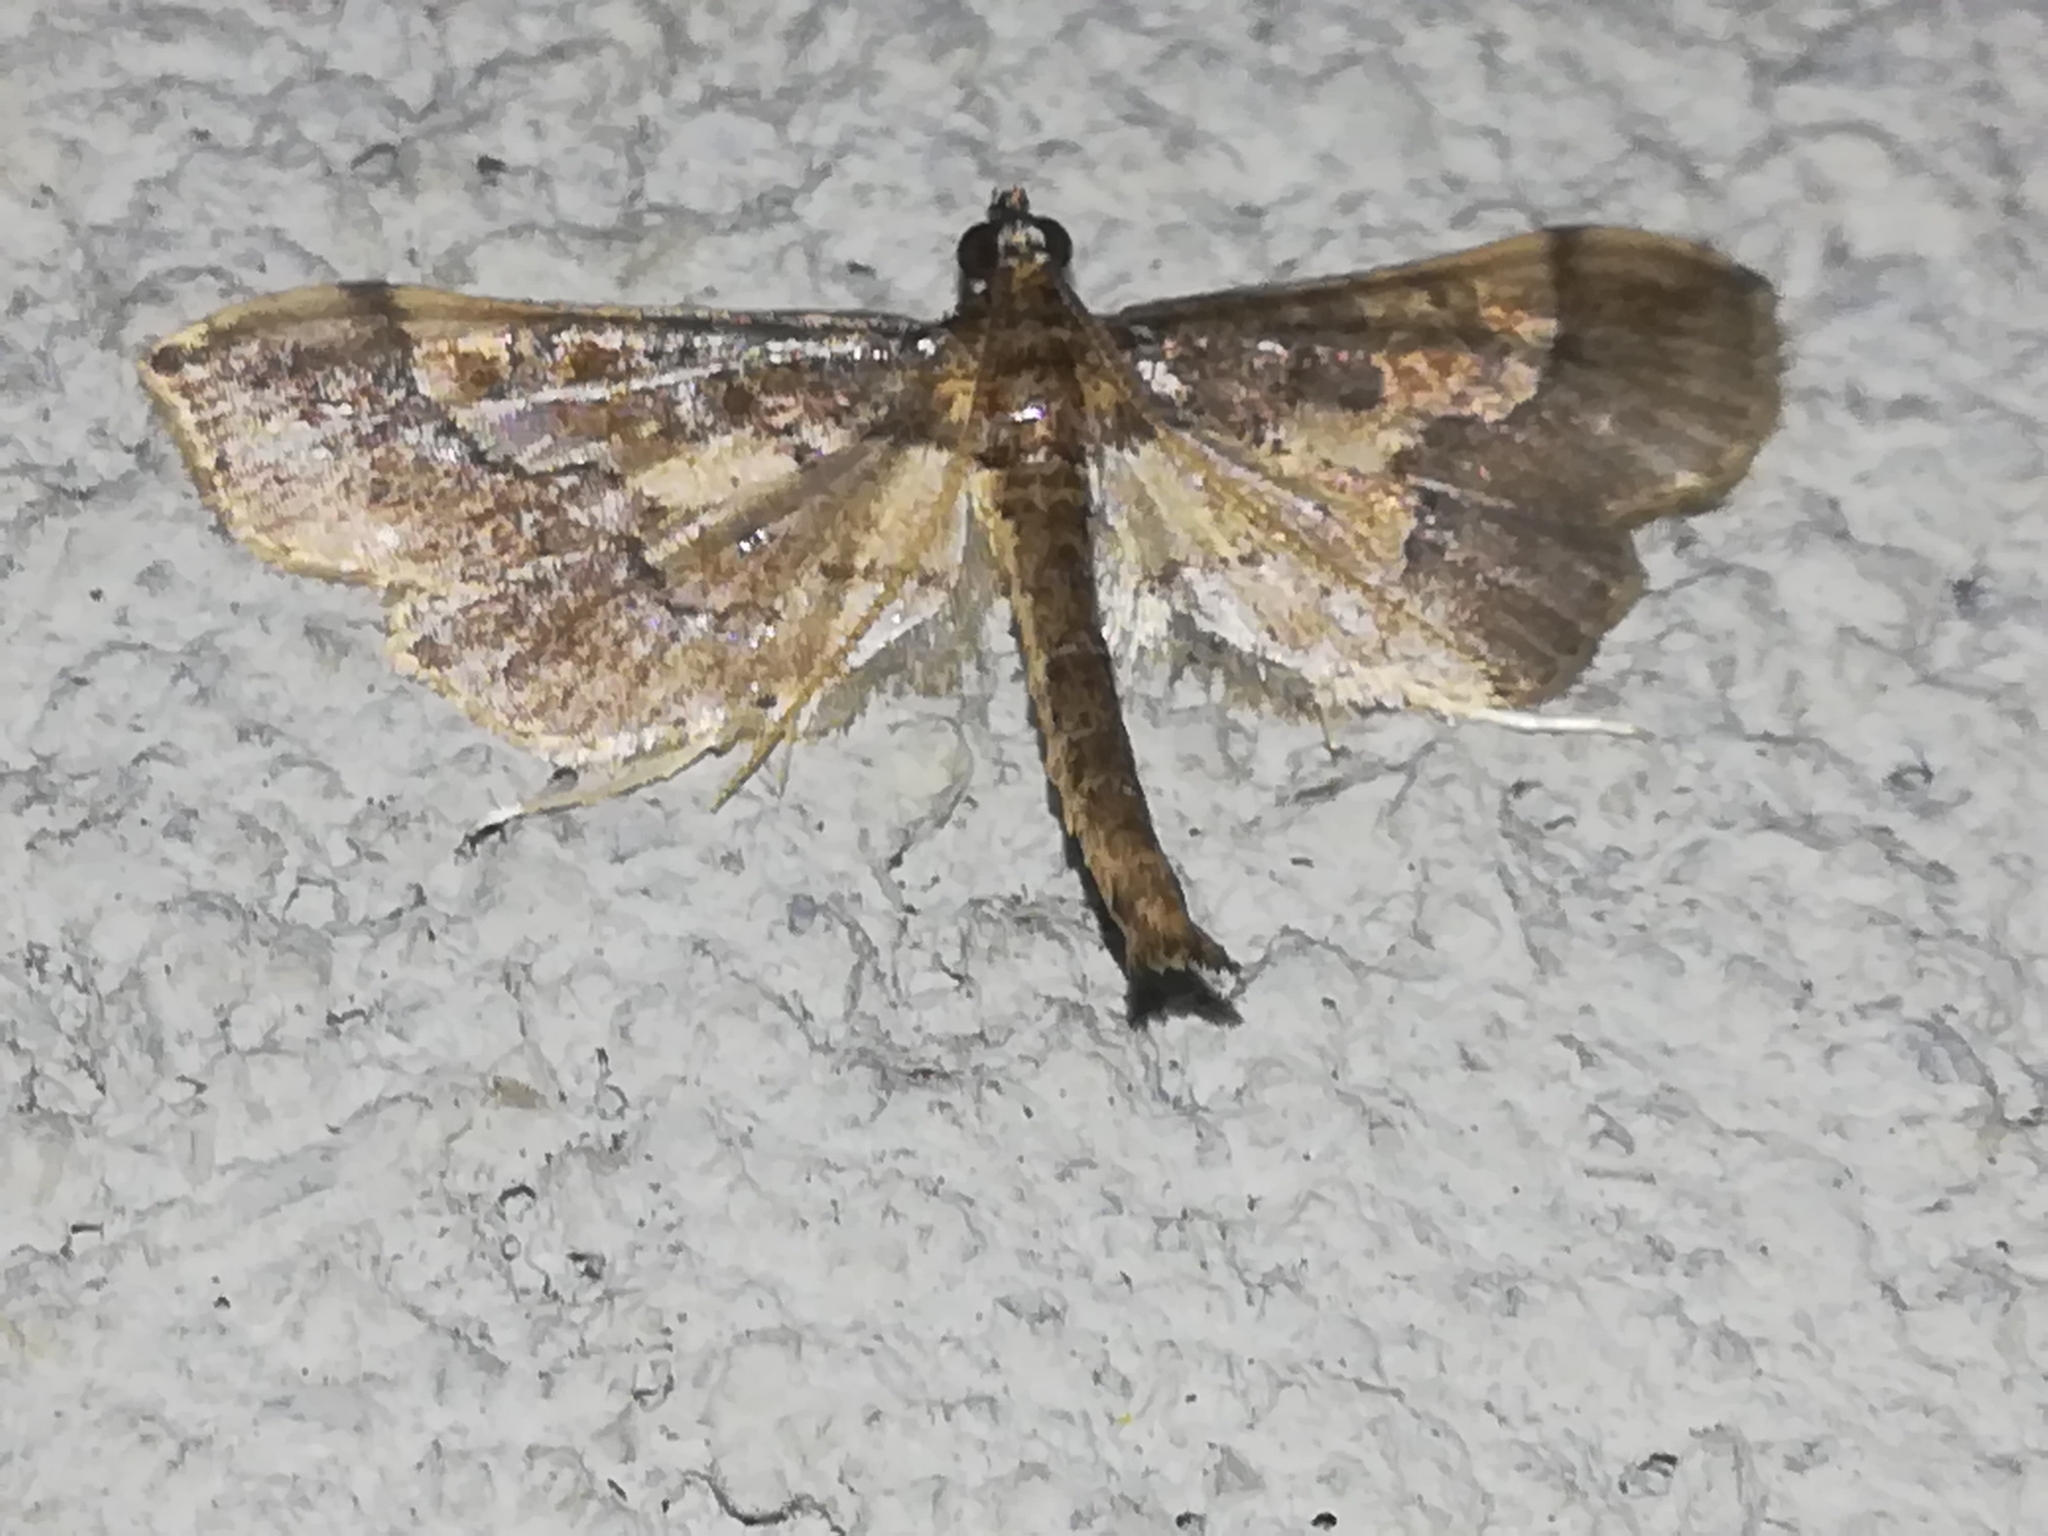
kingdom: Animalia
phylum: Arthropoda
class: Insecta
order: Lepidoptera
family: Crambidae
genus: Hydriris
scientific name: Hydriris ornatalis
